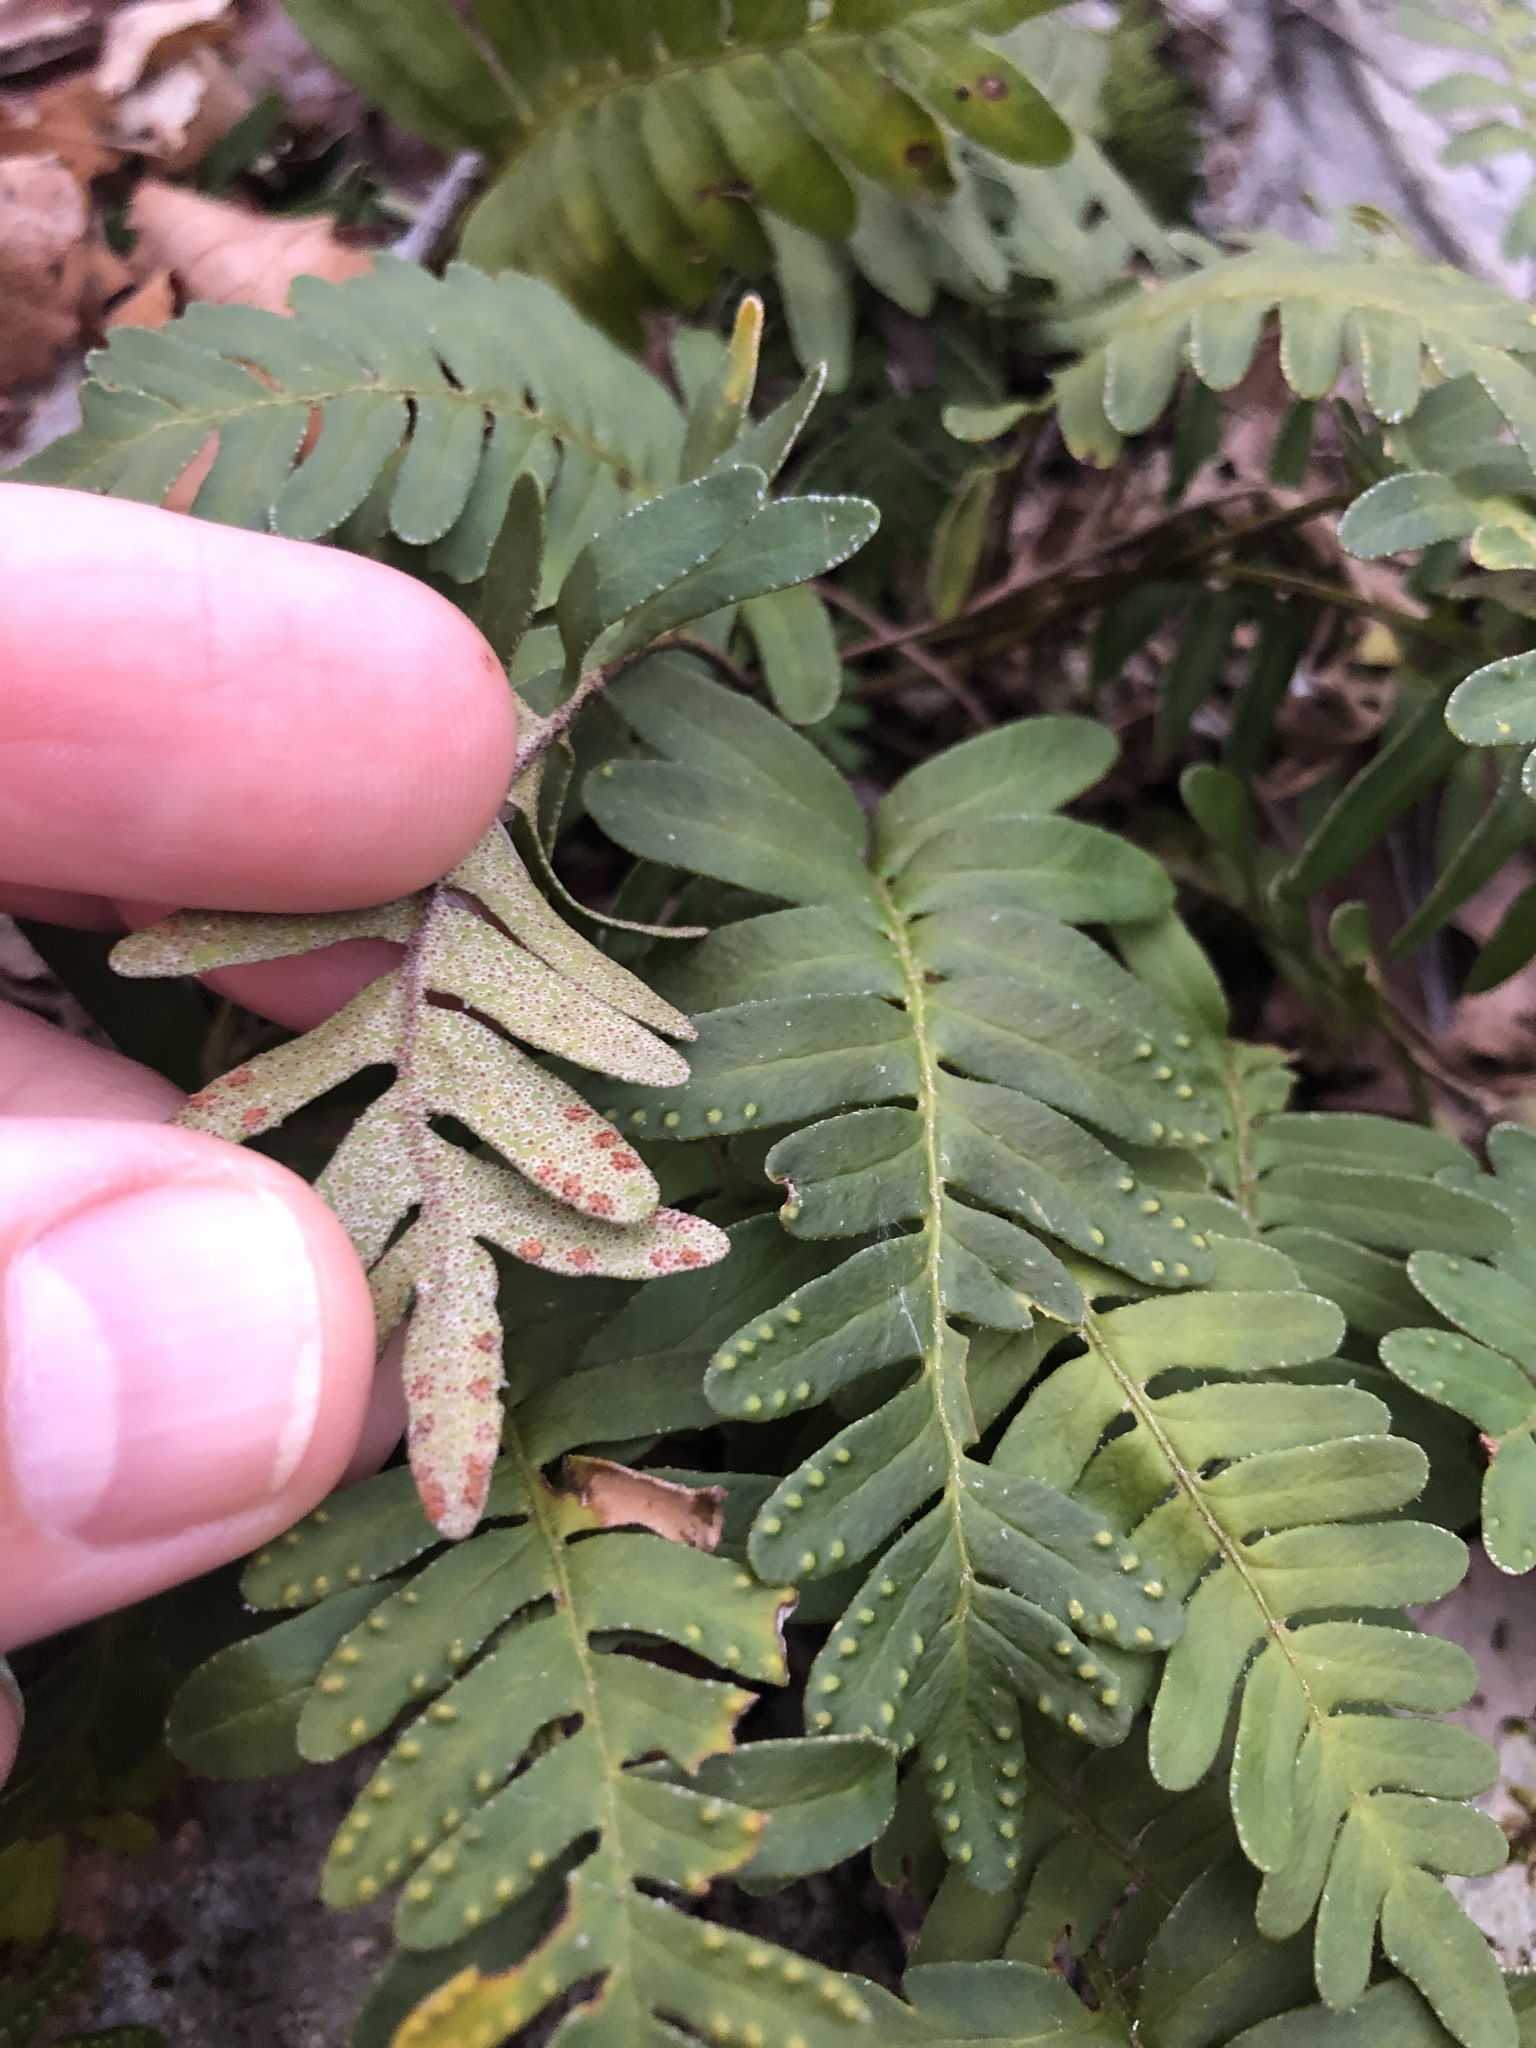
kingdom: Plantae
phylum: Tracheophyta
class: Polypodiopsida
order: Polypodiales
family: Polypodiaceae
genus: Pleopeltis
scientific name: Pleopeltis michauxiana
